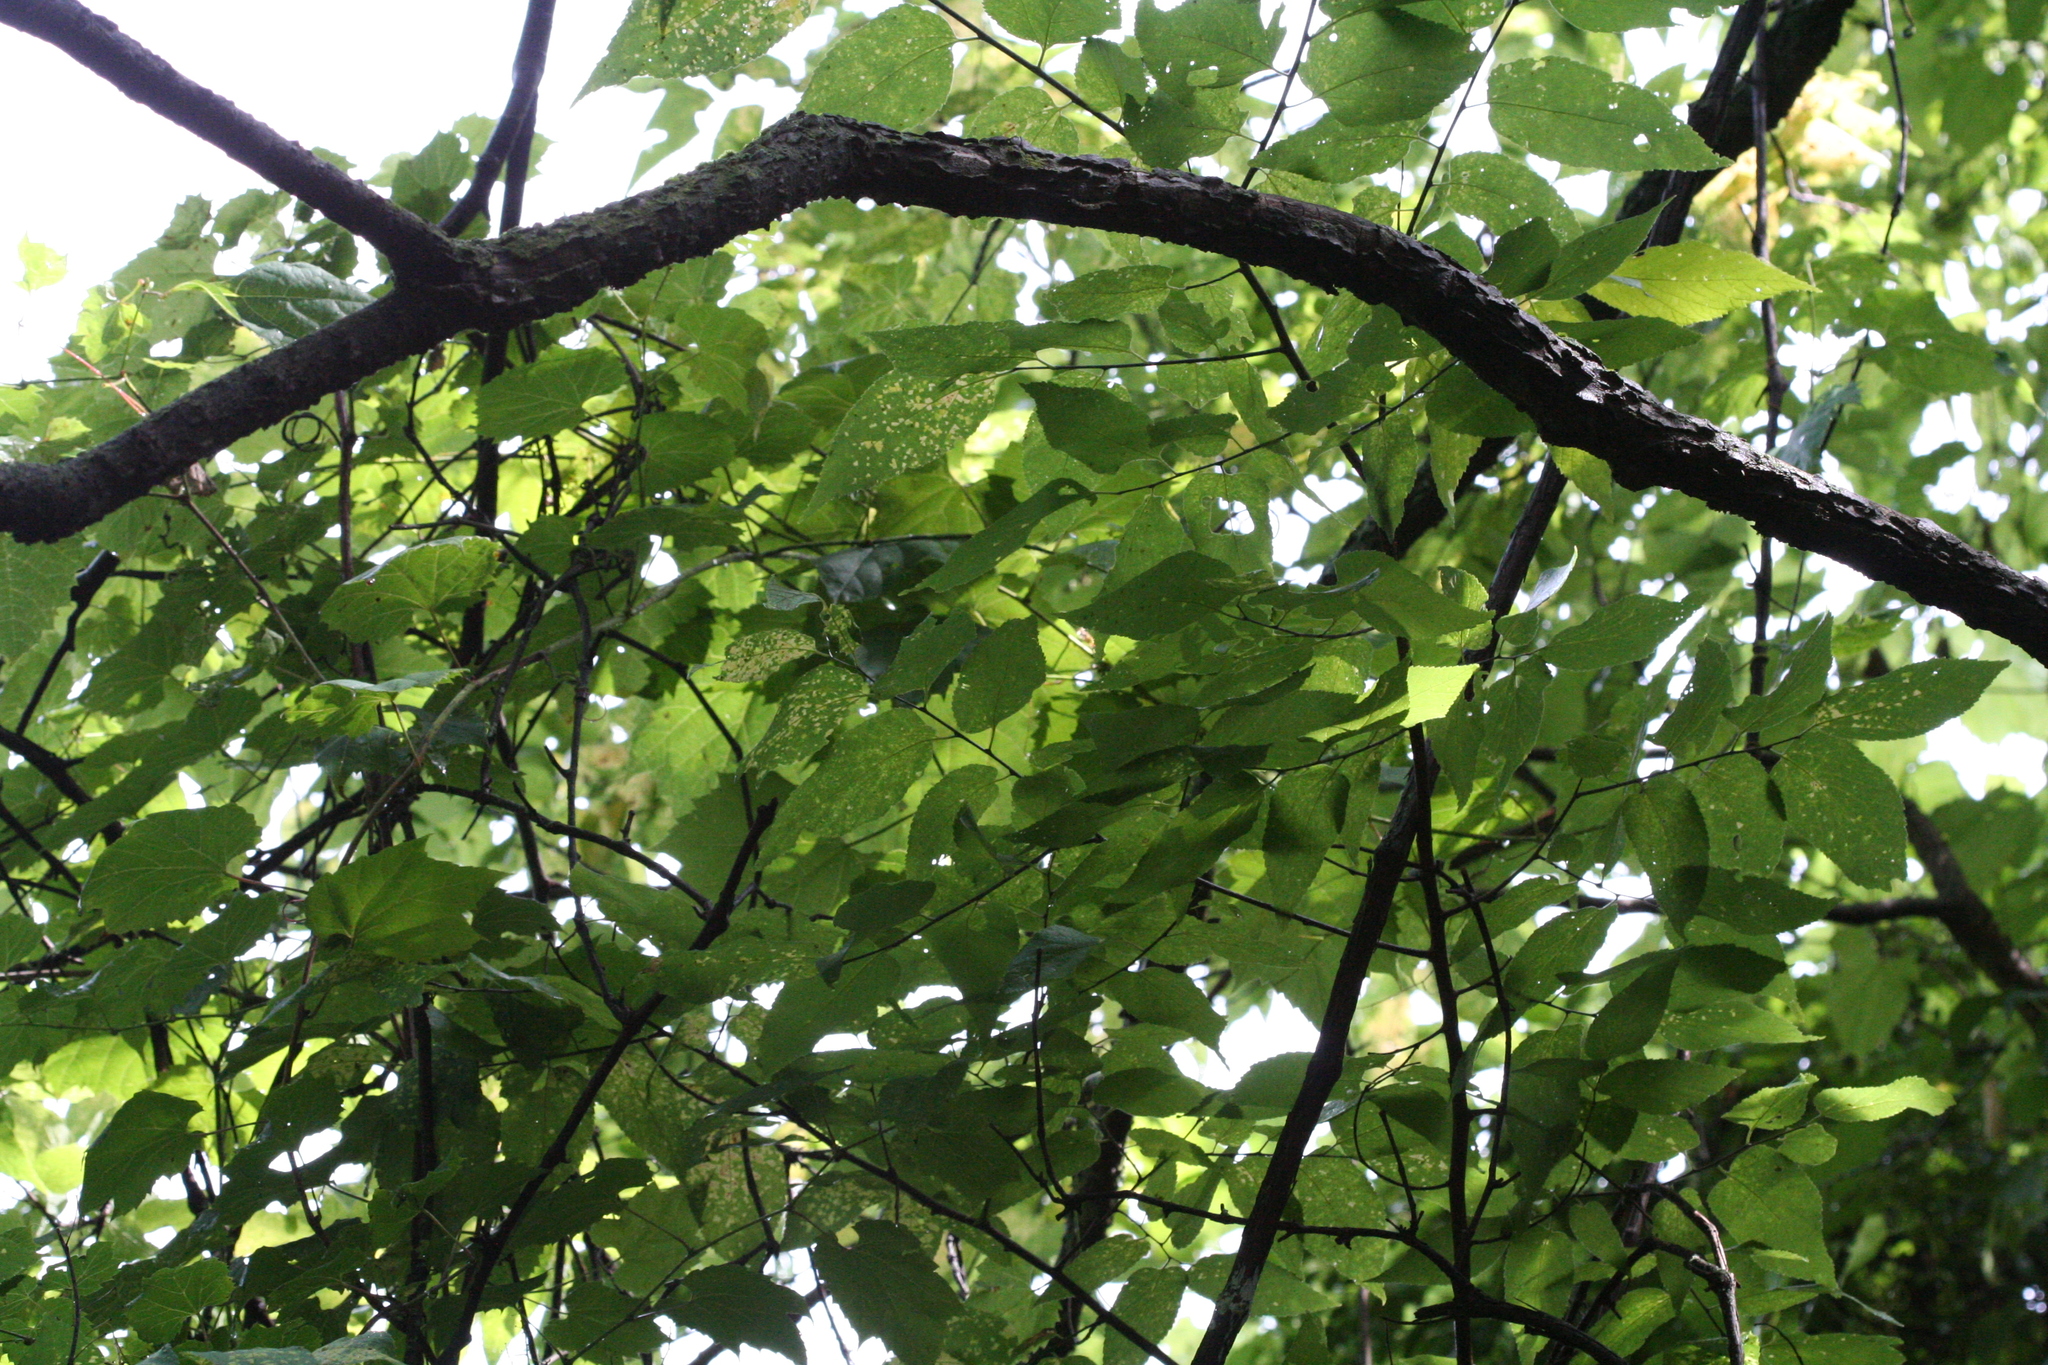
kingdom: Plantae
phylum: Tracheophyta
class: Magnoliopsida
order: Rosales
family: Cannabaceae
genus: Celtis
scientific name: Celtis occidentalis
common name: Common hackberry
